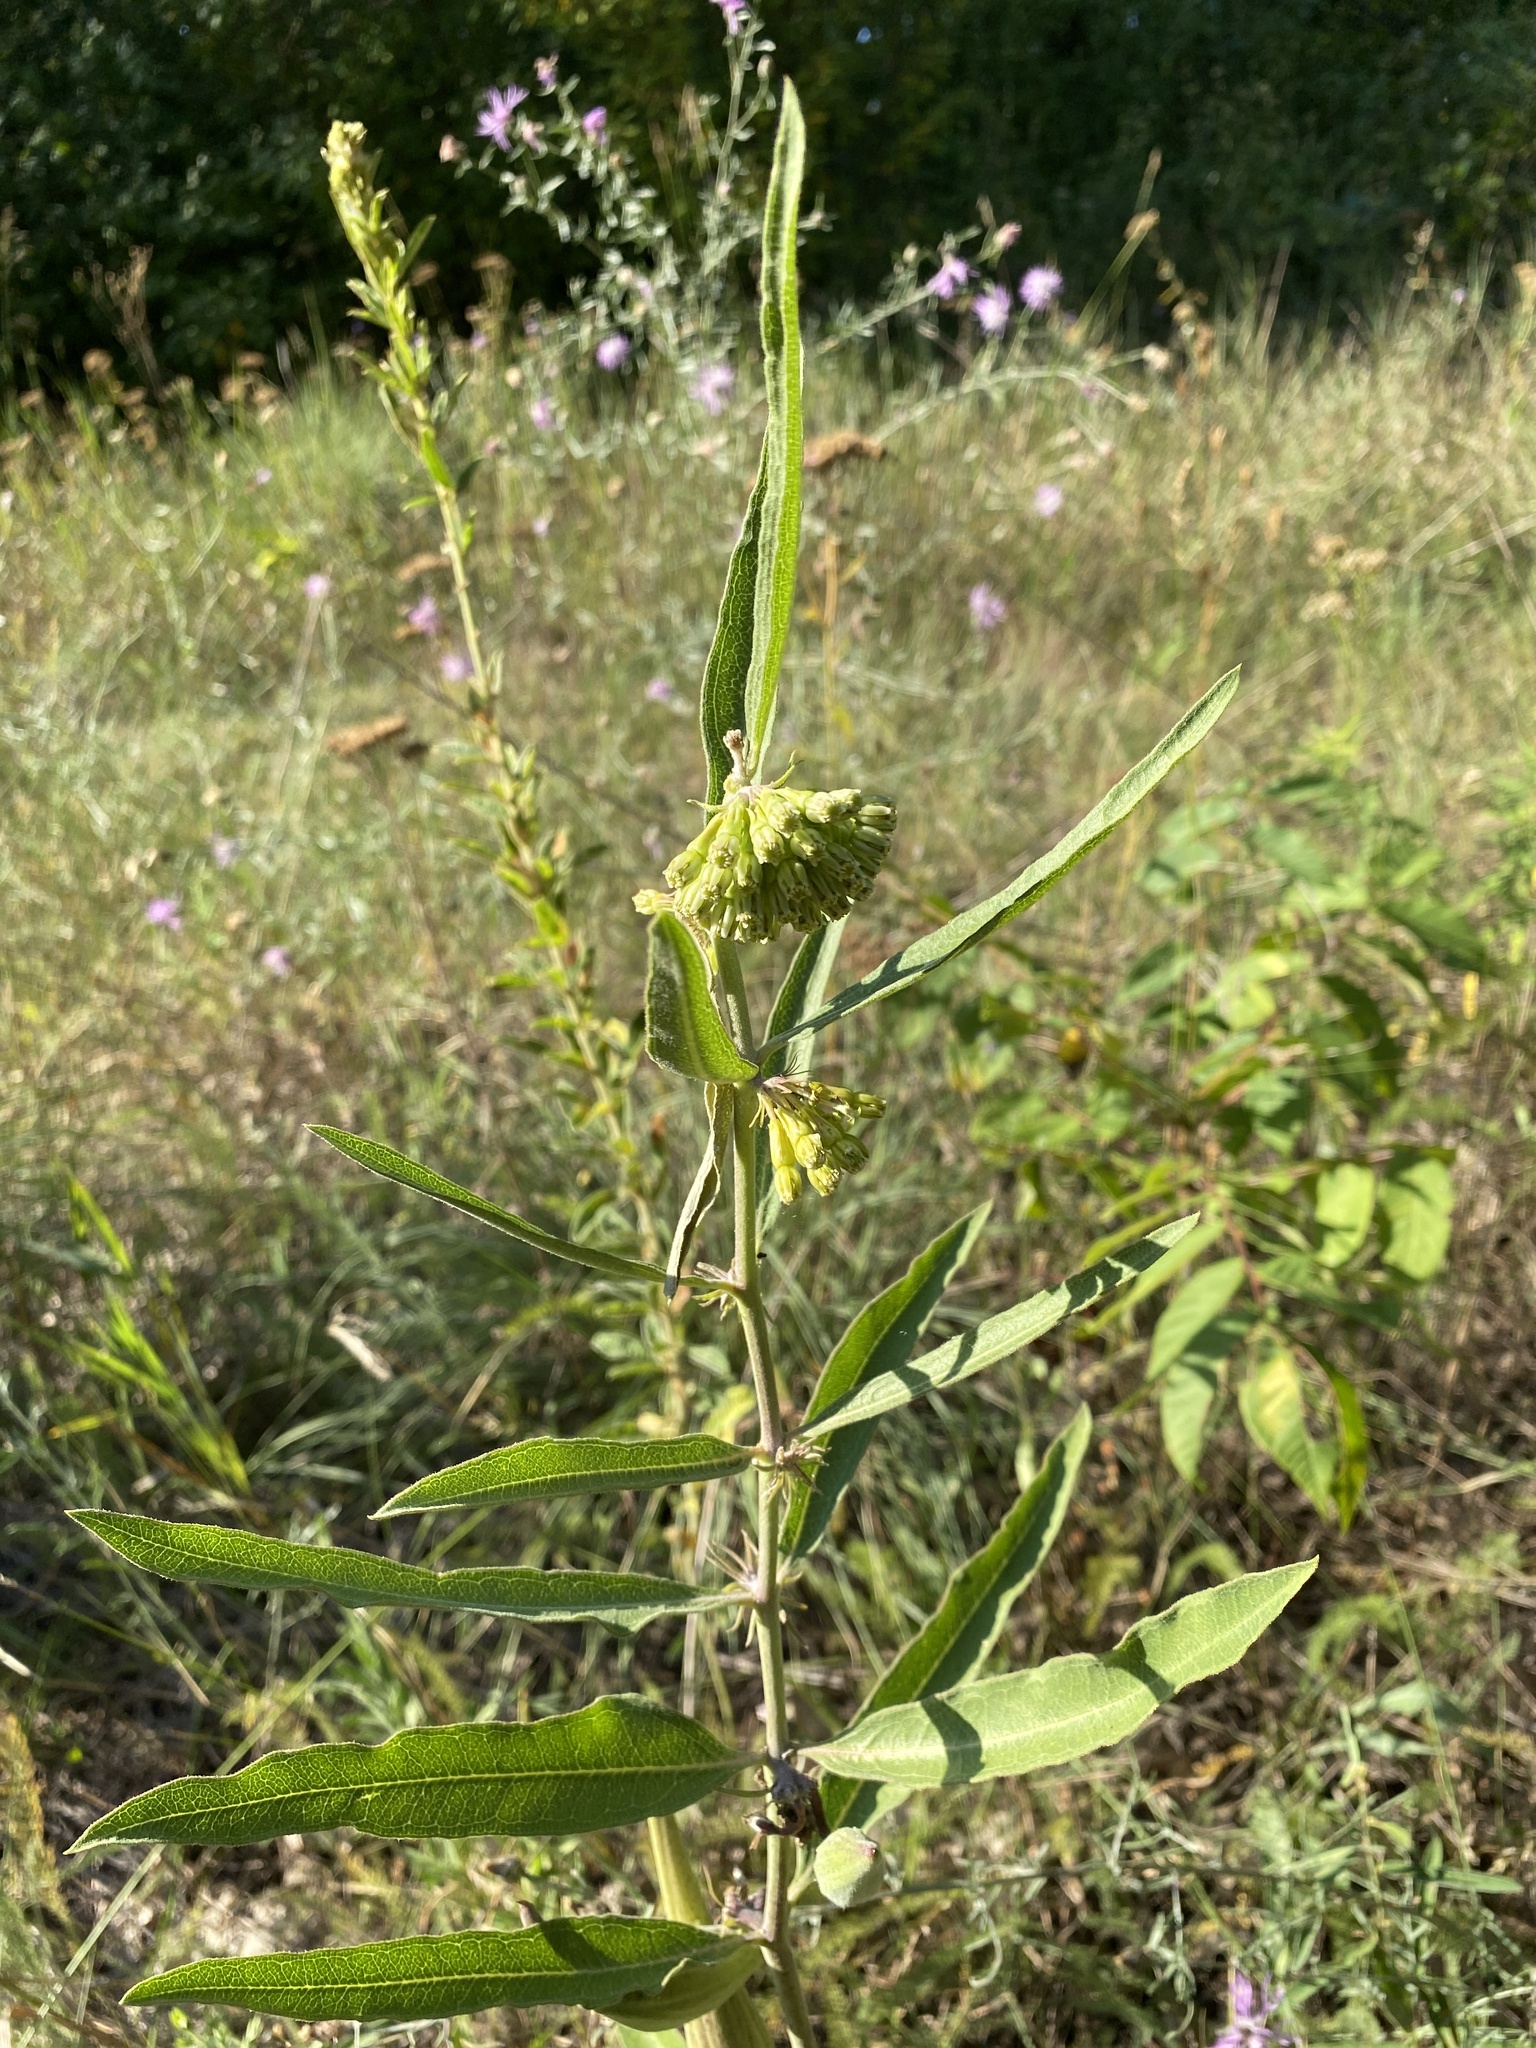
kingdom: Plantae
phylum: Tracheophyta
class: Magnoliopsida
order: Gentianales
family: Apocynaceae
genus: Asclepias
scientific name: Asclepias viridiflora
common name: Green comet milkweed
